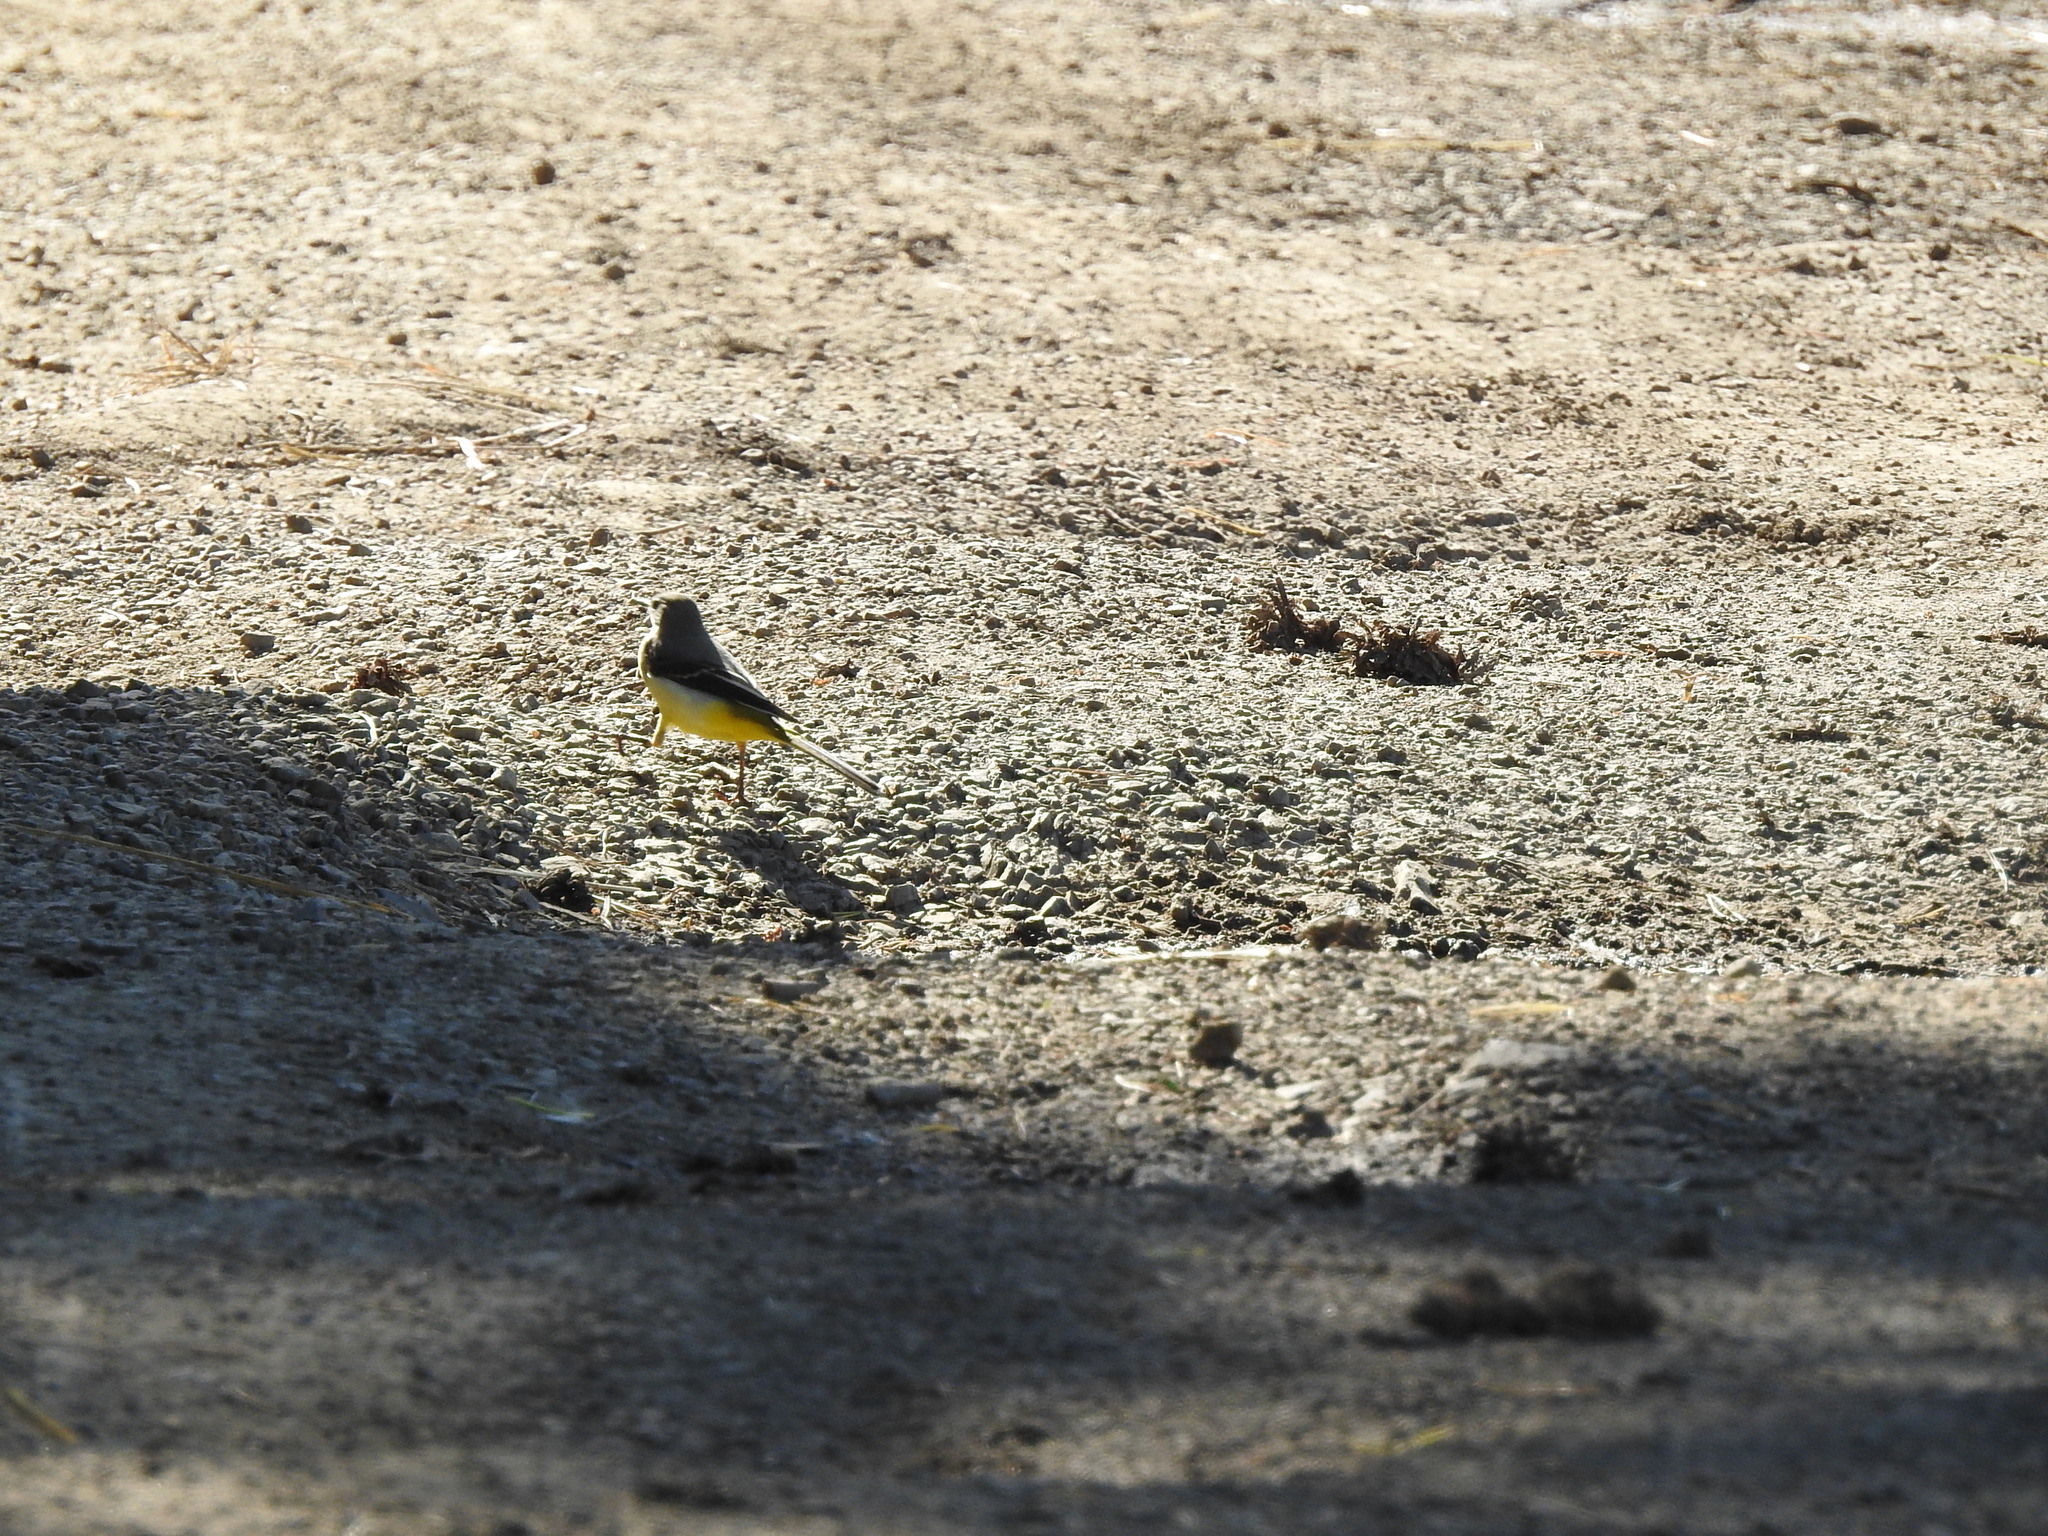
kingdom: Animalia
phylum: Chordata
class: Aves
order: Passeriformes
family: Motacillidae
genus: Motacilla
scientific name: Motacilla cinerea
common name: Grey wagtail
